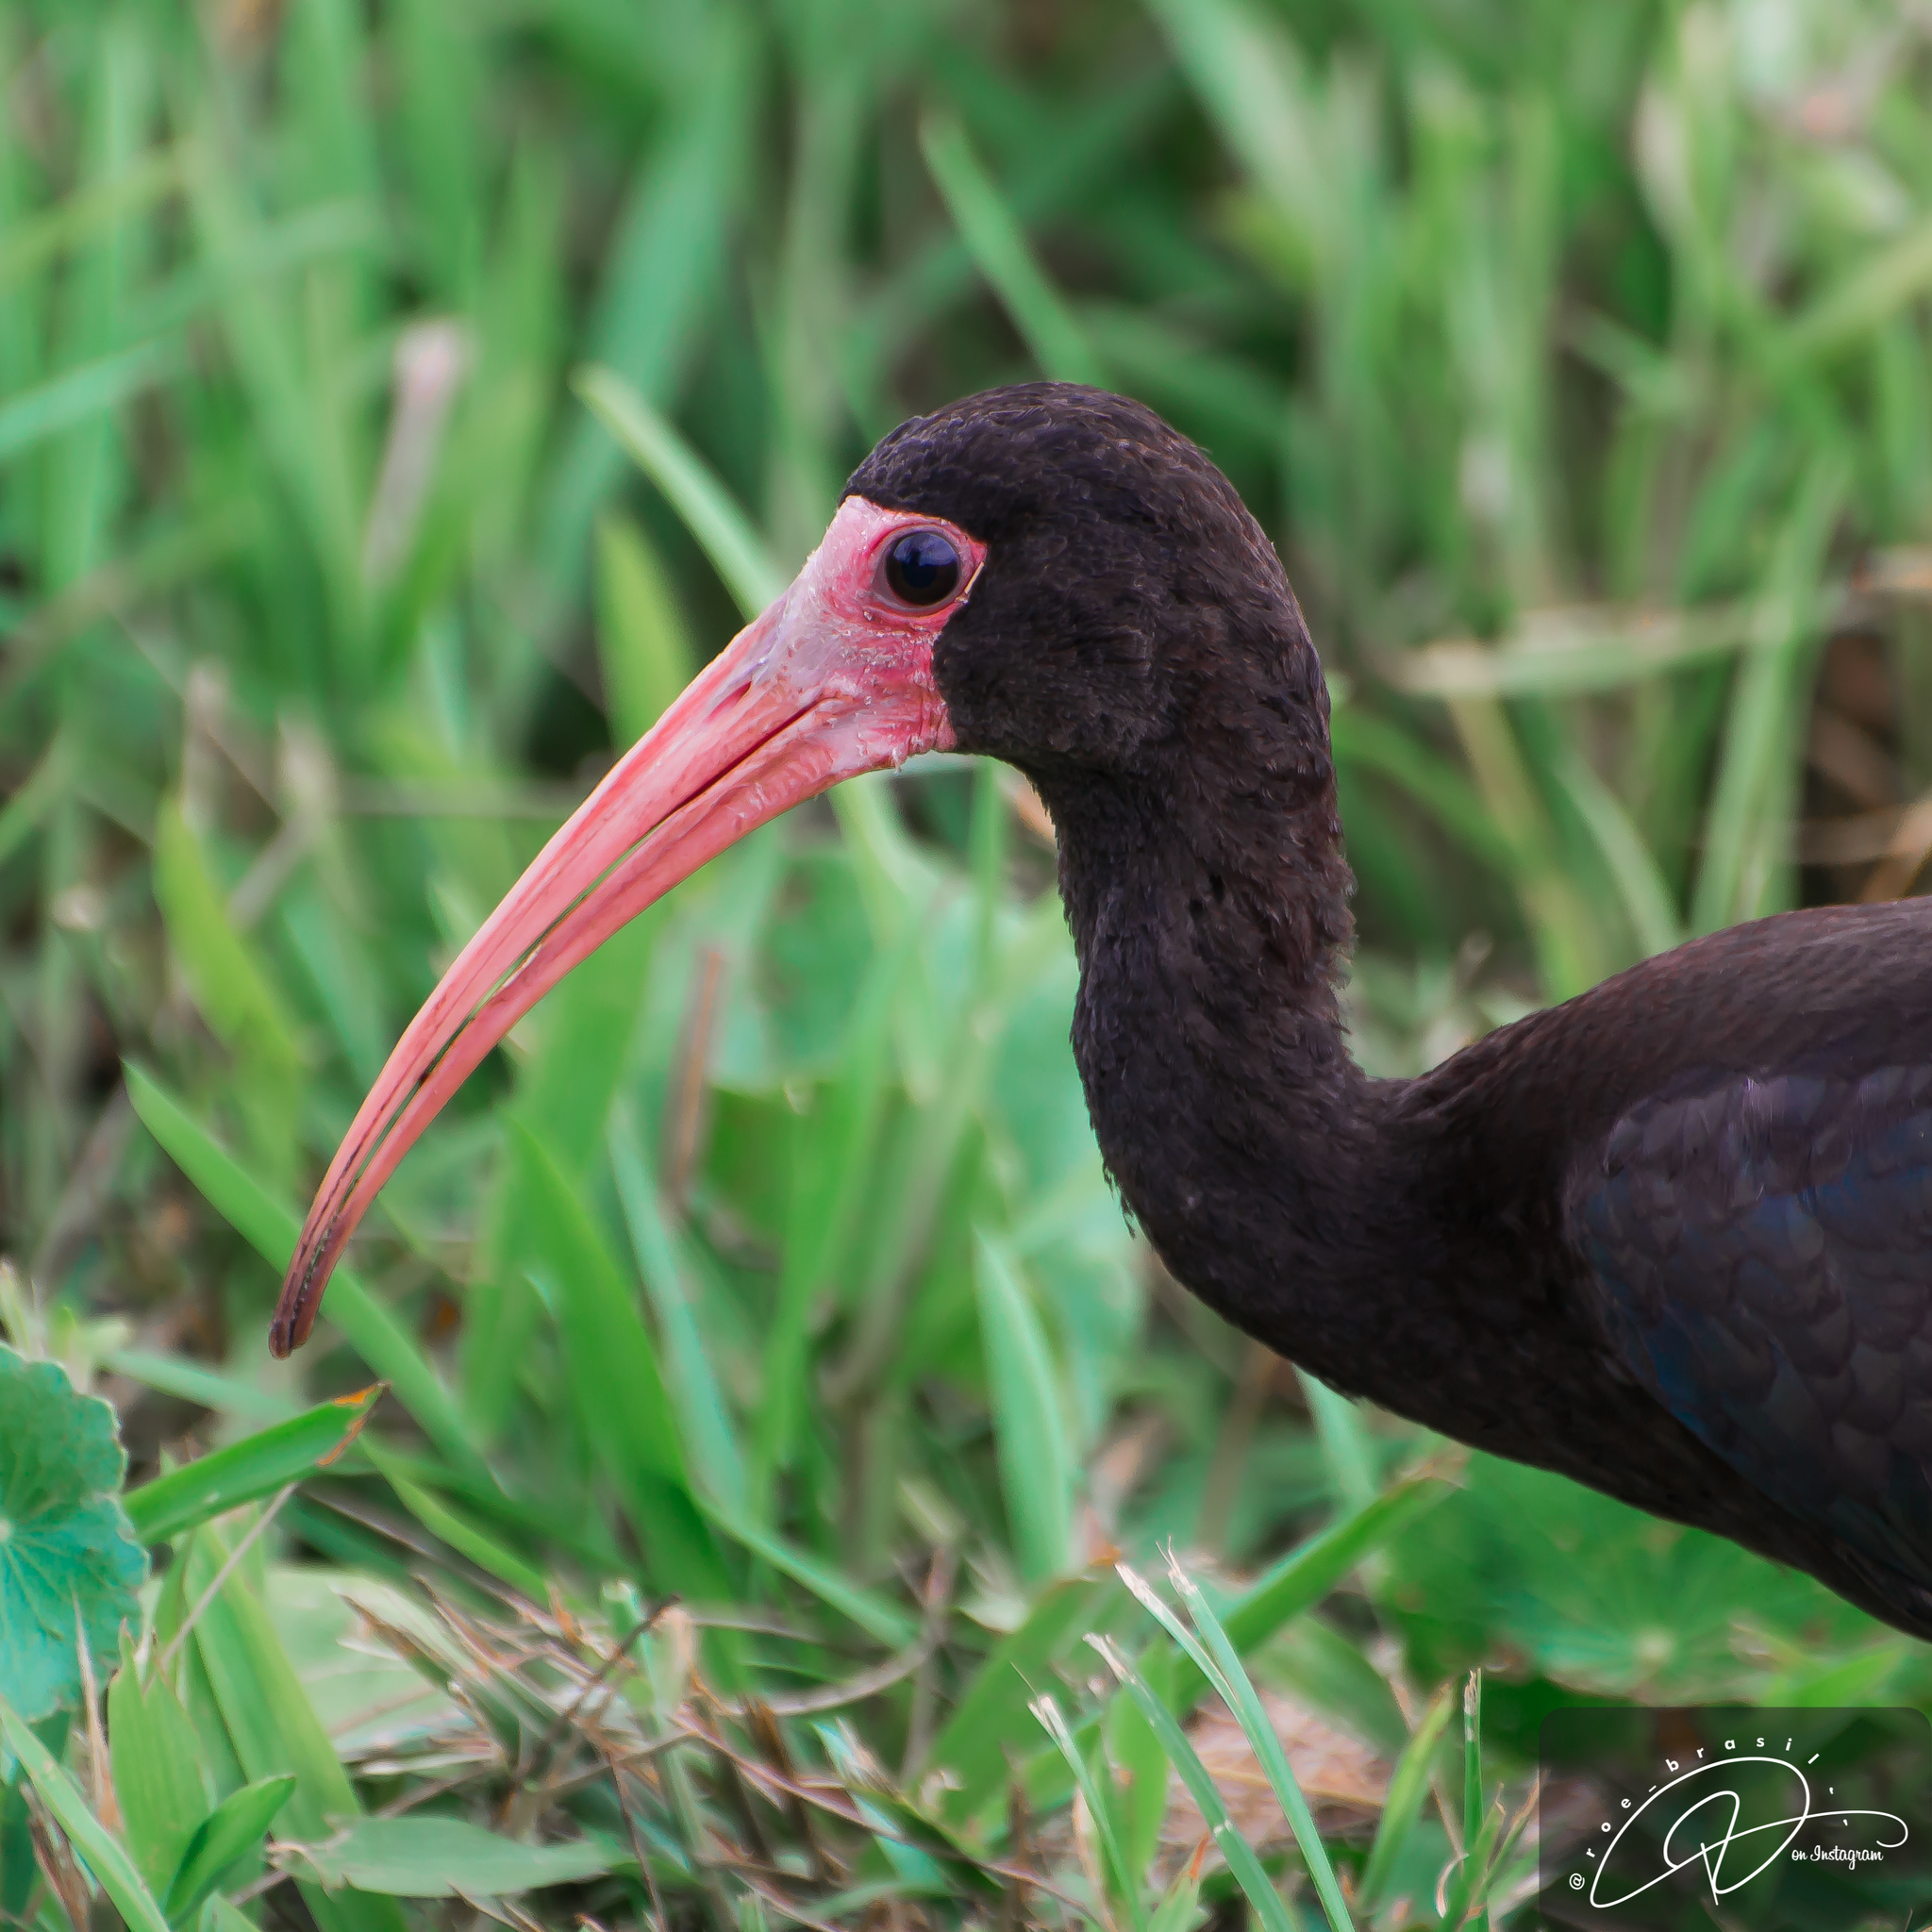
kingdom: Animalia
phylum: Chordata
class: Aves
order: Pelecaniformes
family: Threskiornithidae
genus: Phimosus
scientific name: Phimosus infuscatus
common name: Bare-faced ibis
